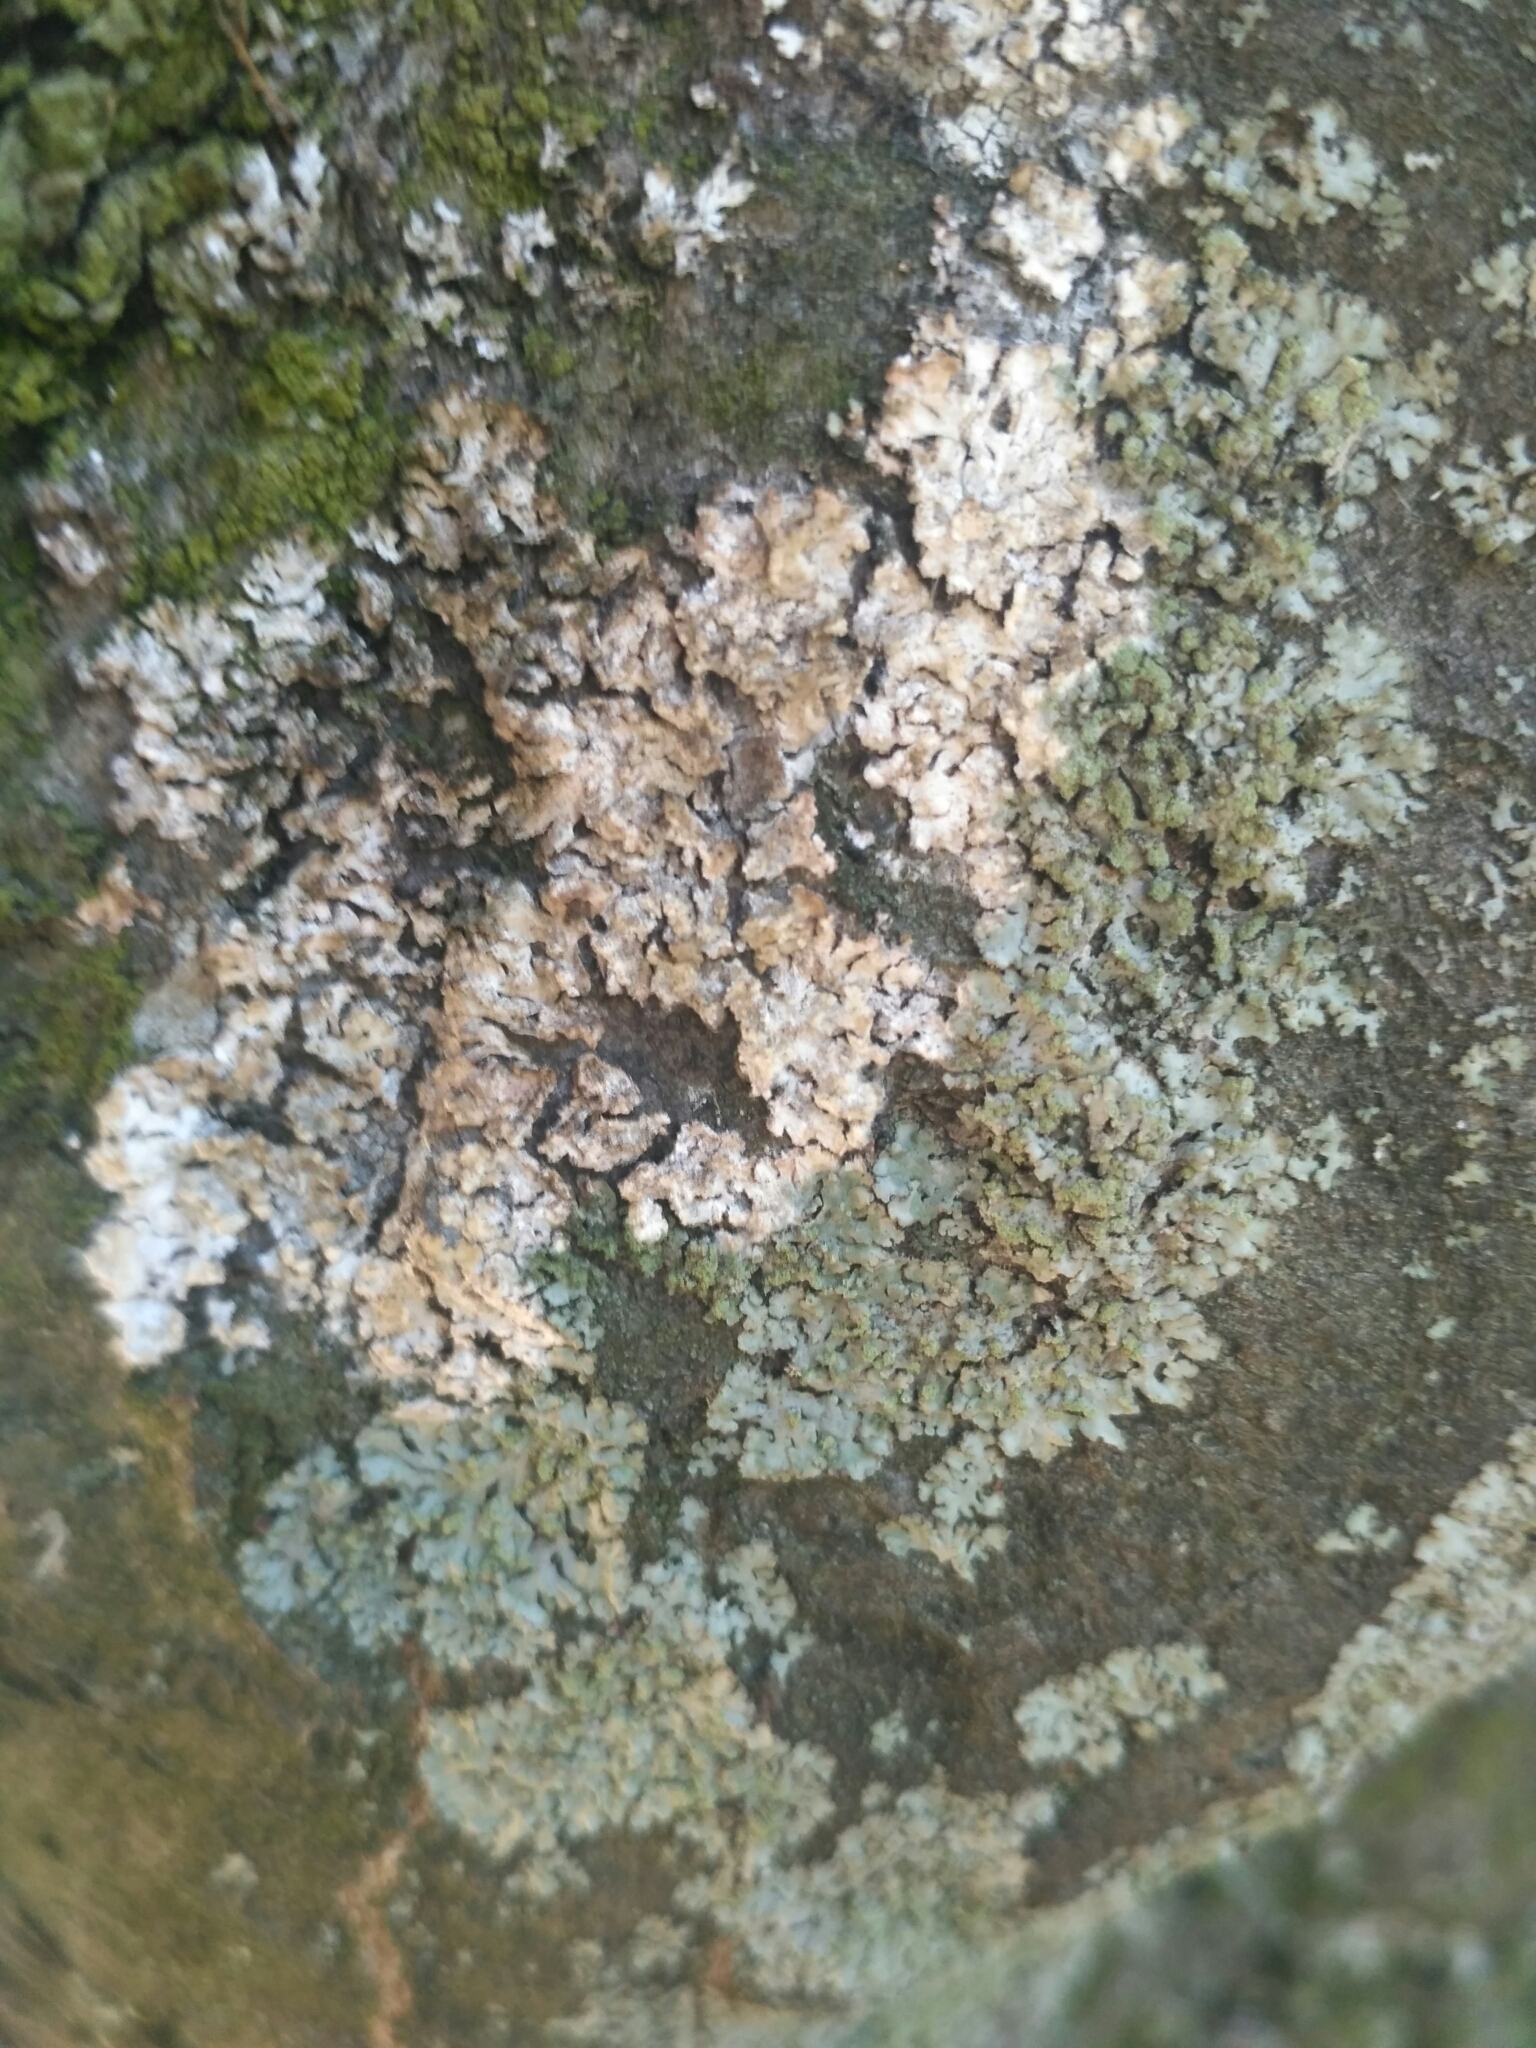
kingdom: Fungi
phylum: Basidiomycota
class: Agaricomycetes
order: Atheliales
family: Atheliaceae
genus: Athelia
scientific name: Athelia arachnoidea
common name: Candelabra duster
